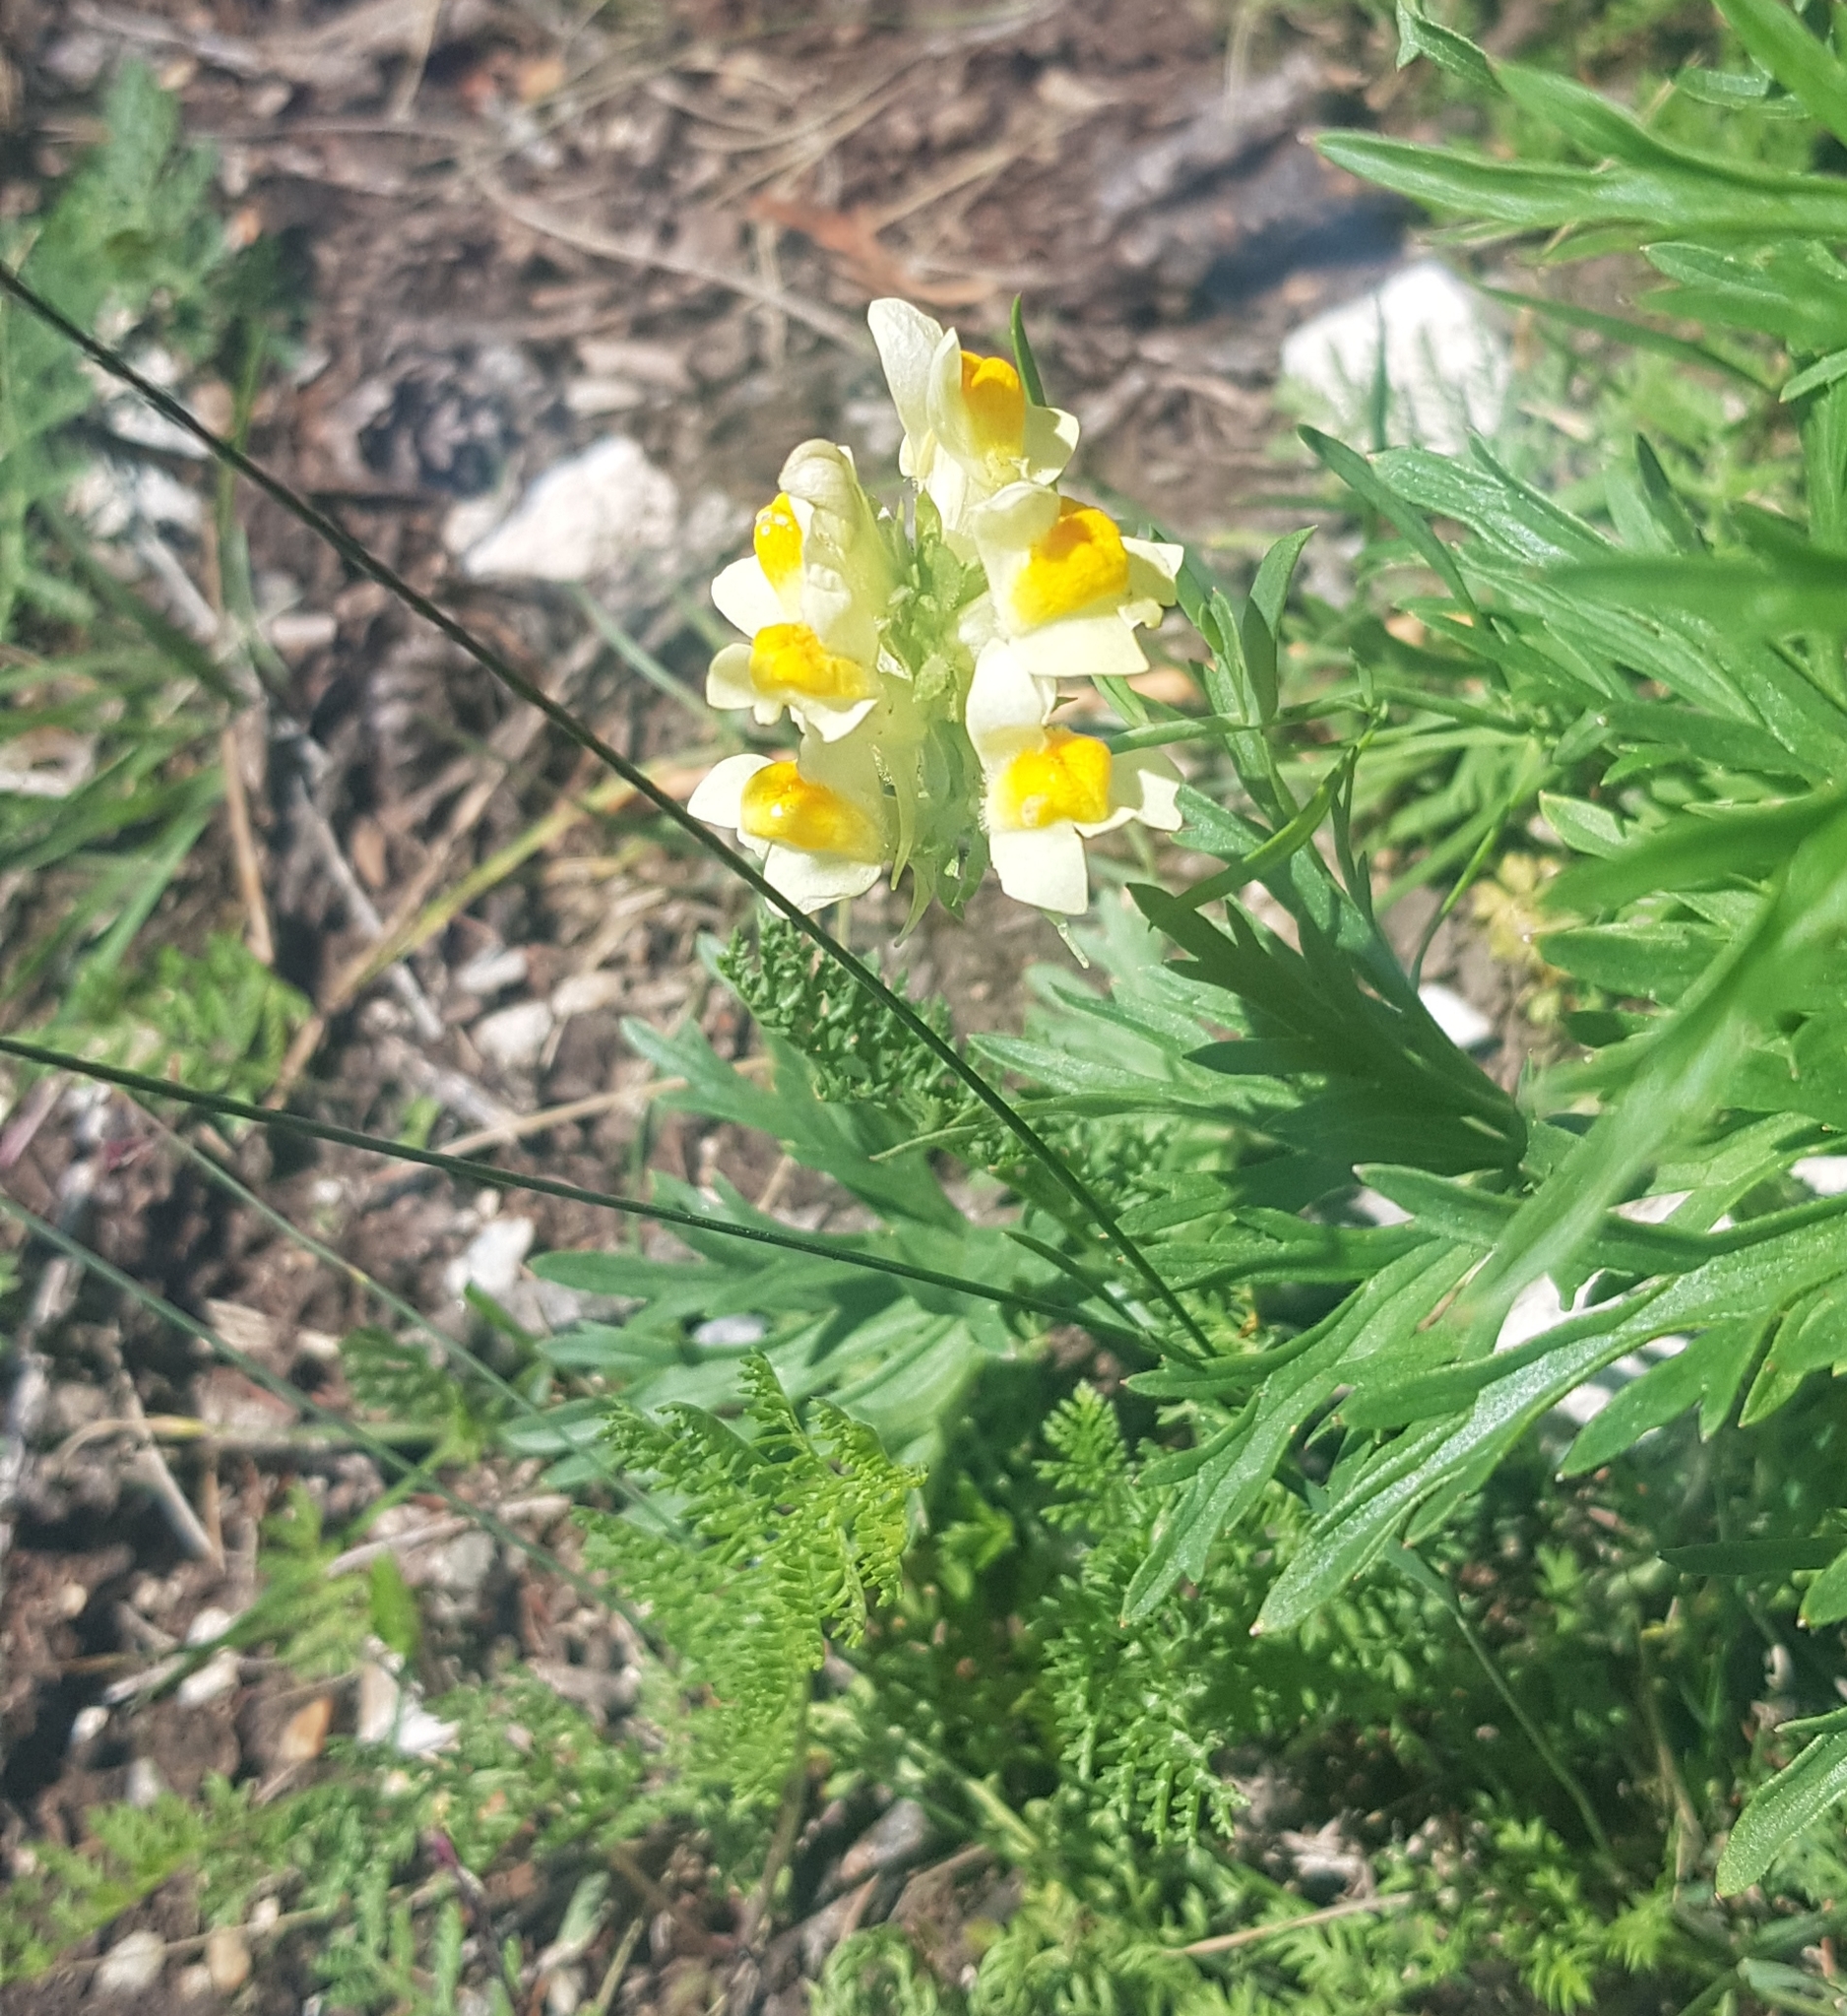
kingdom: Plantae
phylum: Tracheophyta
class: Magnoliopsida
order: Lamiales
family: Plantaginaceae
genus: Linaria
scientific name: Linaria buriatica
